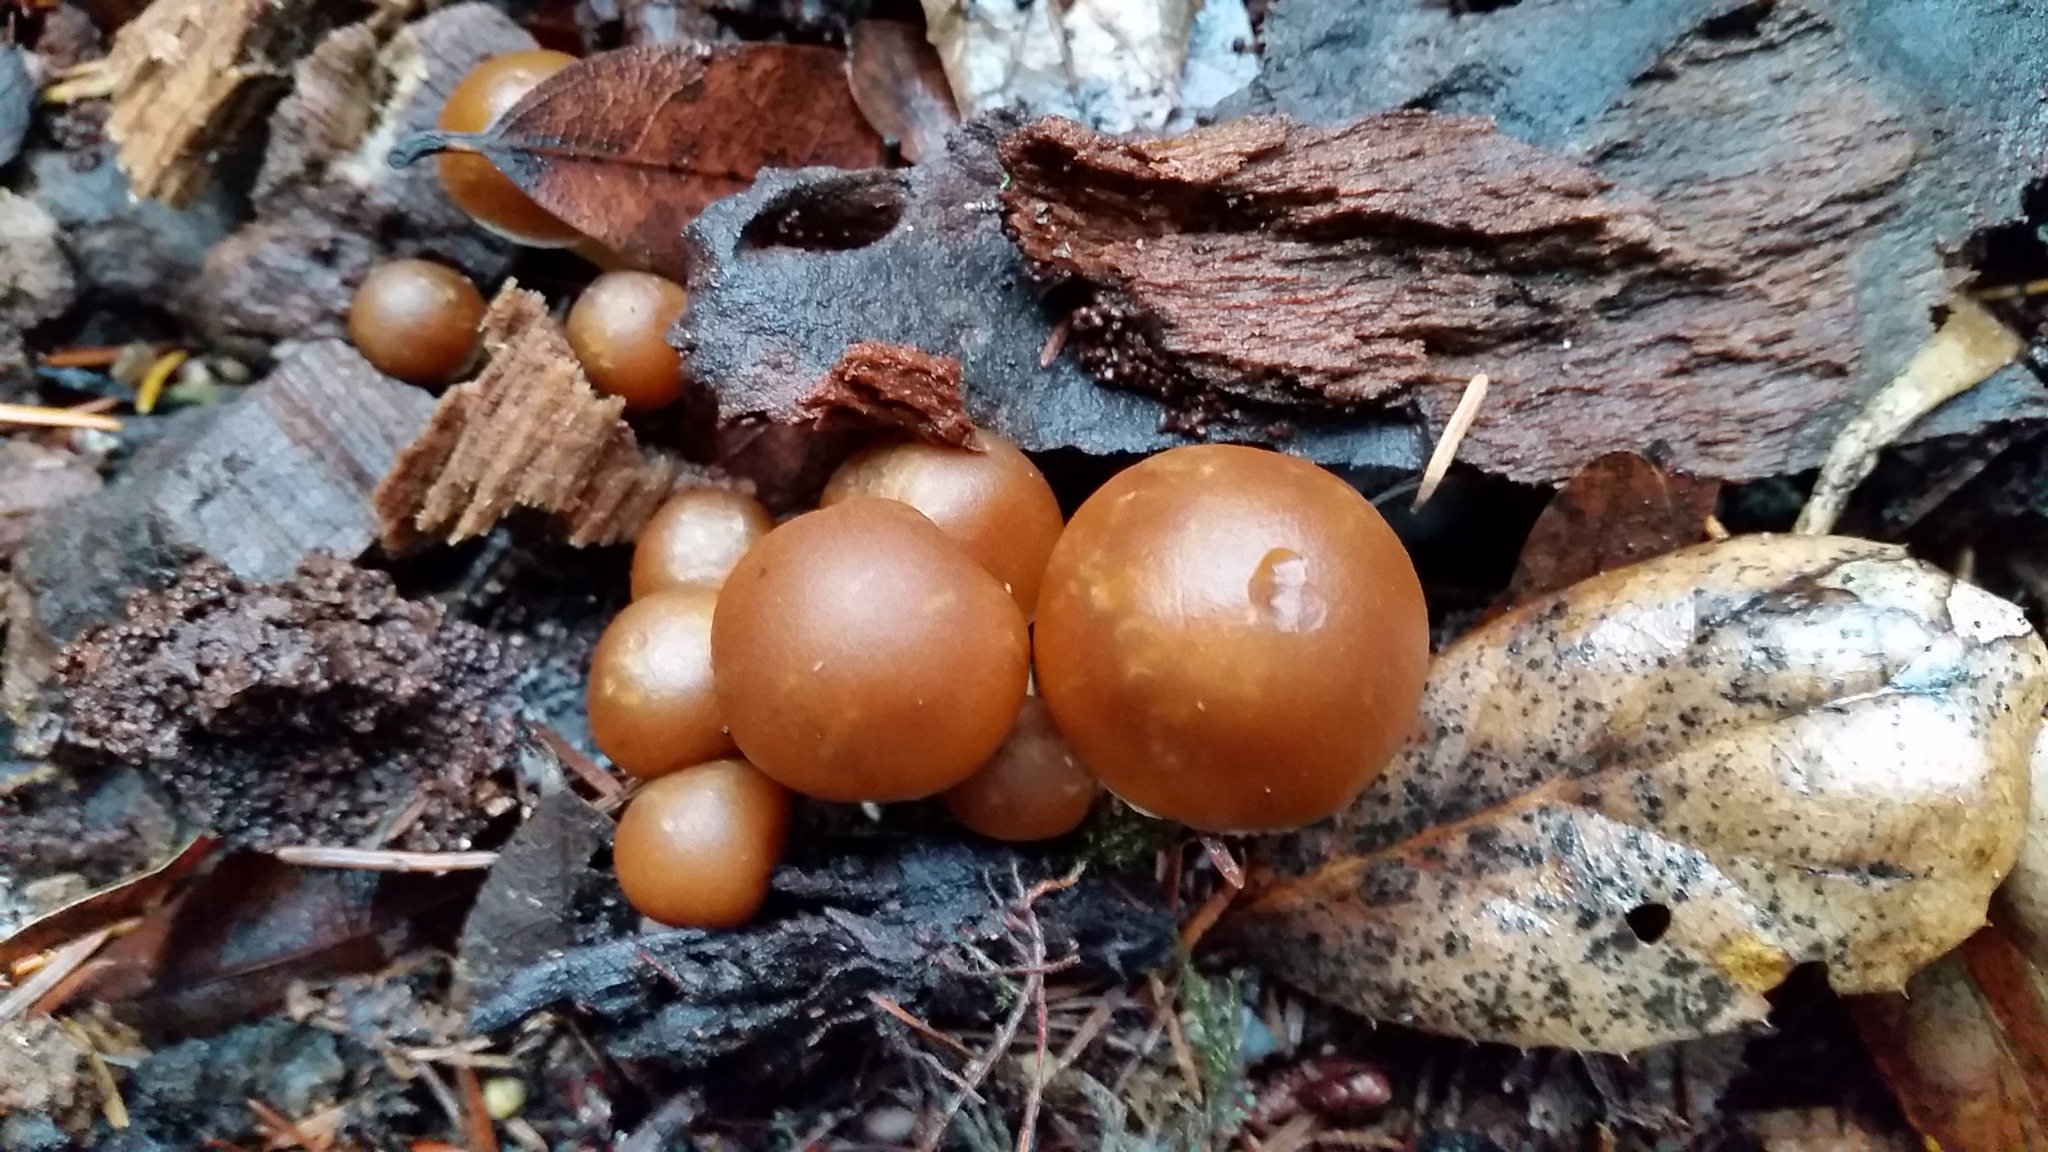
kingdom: Fungi
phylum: Basidiomycota
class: Agaricomycetes
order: Agaricales
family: Psathyrellaceae
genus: Psathyrella
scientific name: Psathyrella piluliformis
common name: Common stump brittlestem
